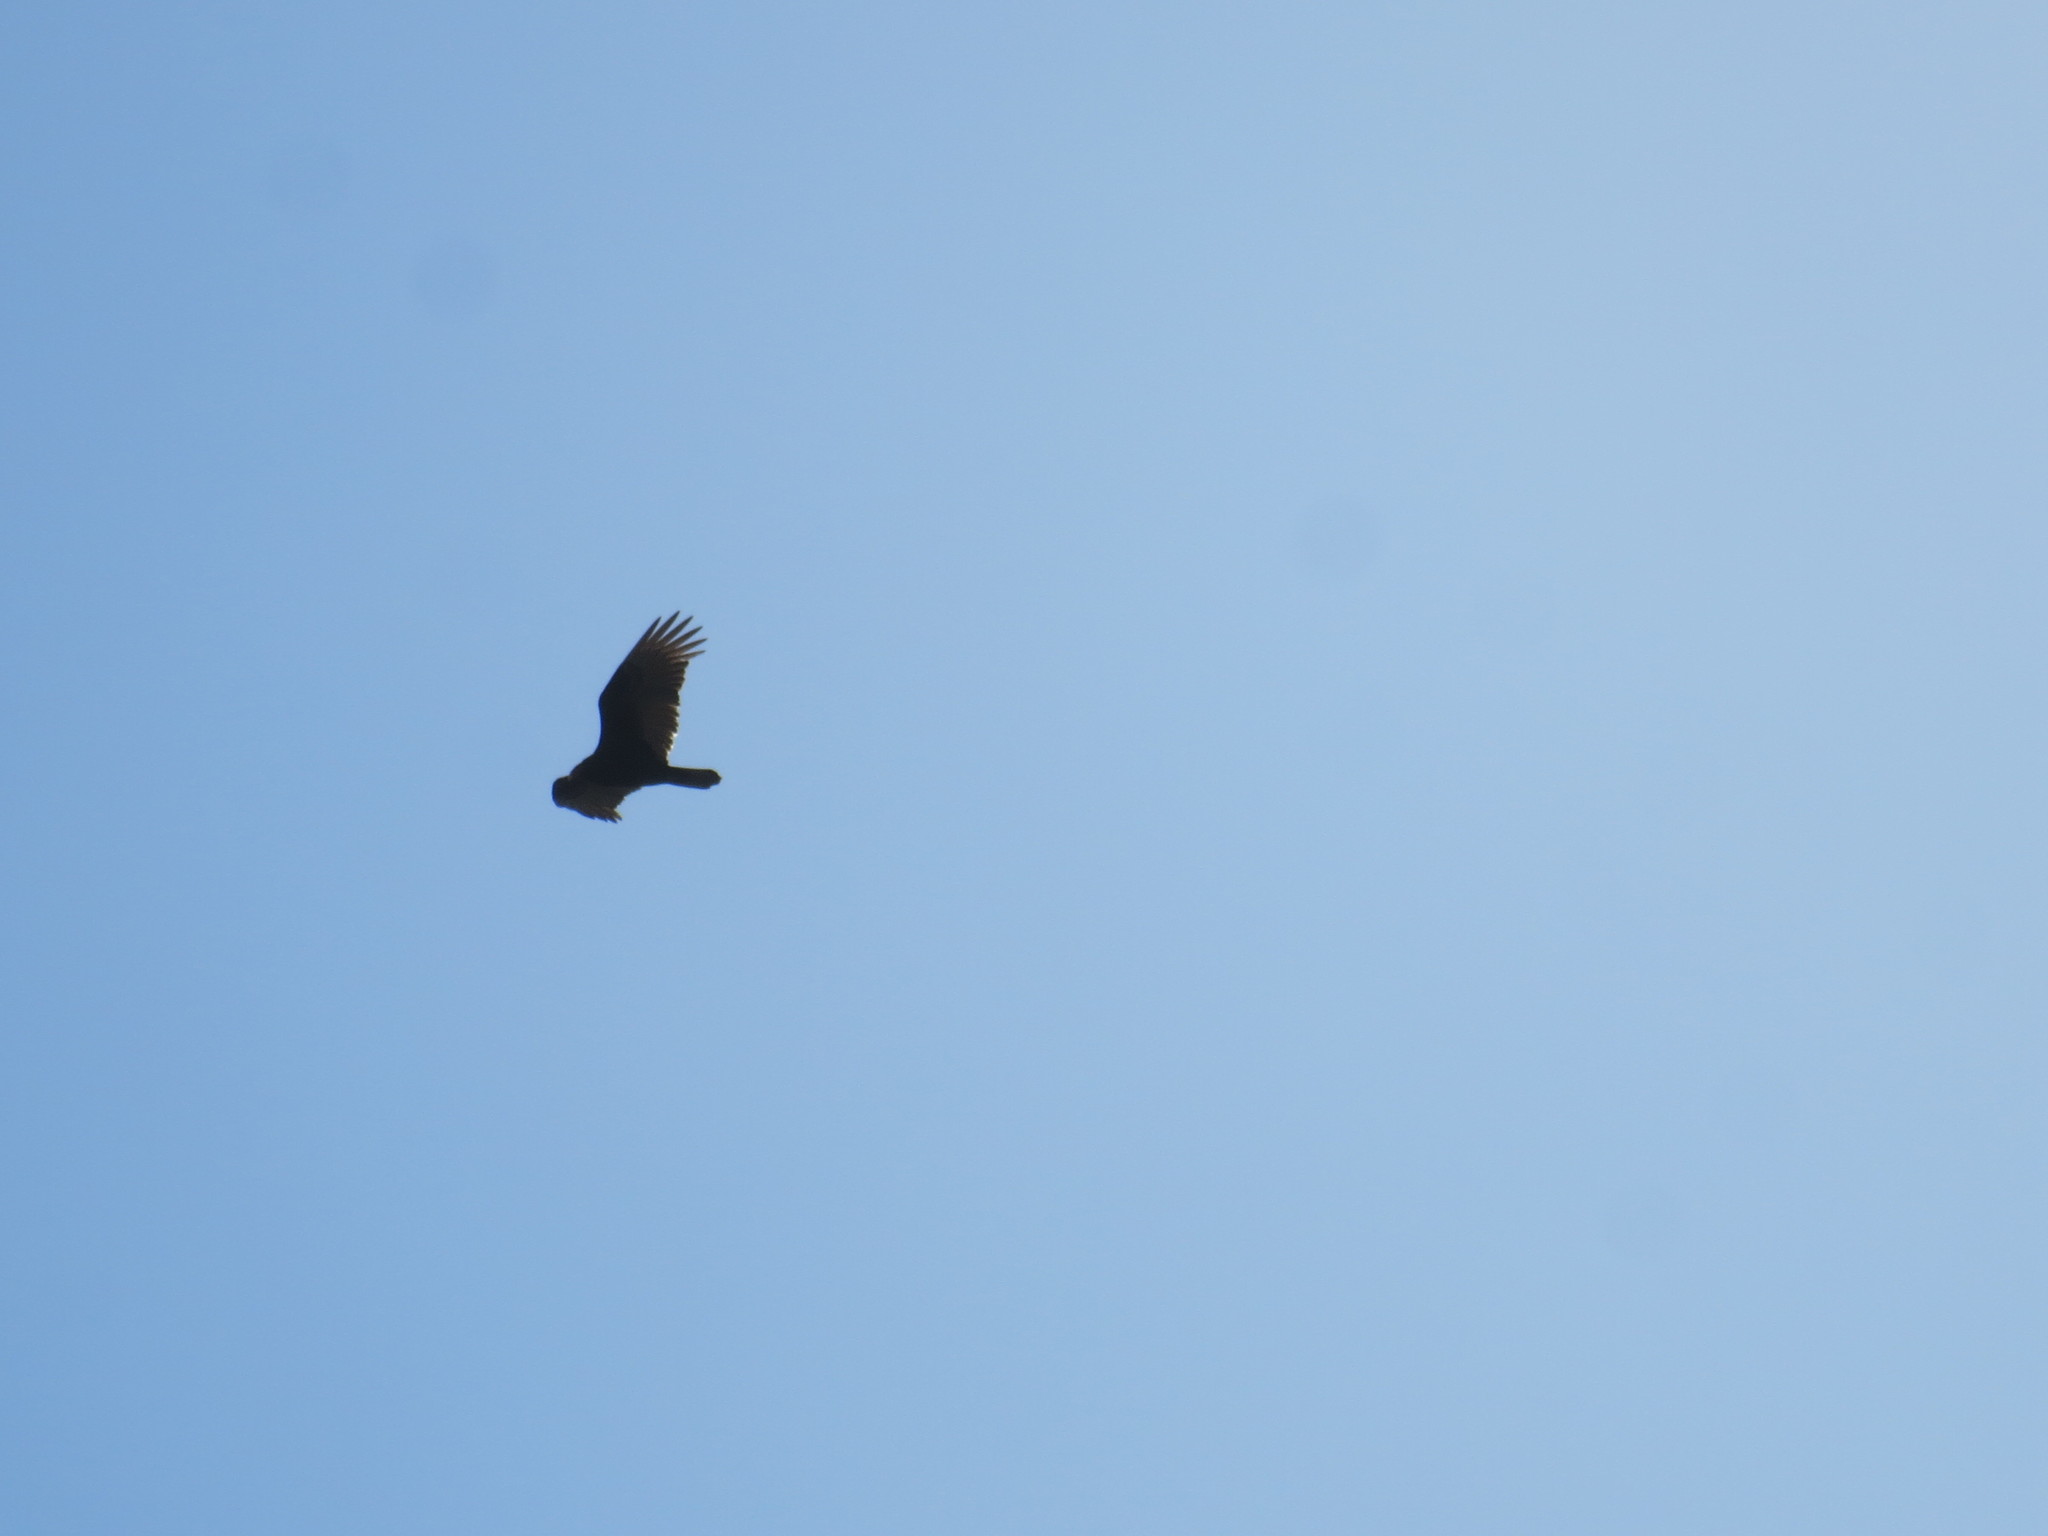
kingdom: Animalia
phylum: Chordata
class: Aves
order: Accipitriformes
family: Cathartidae
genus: Cathartes
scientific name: Cathartes aura
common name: Turkey vulture
